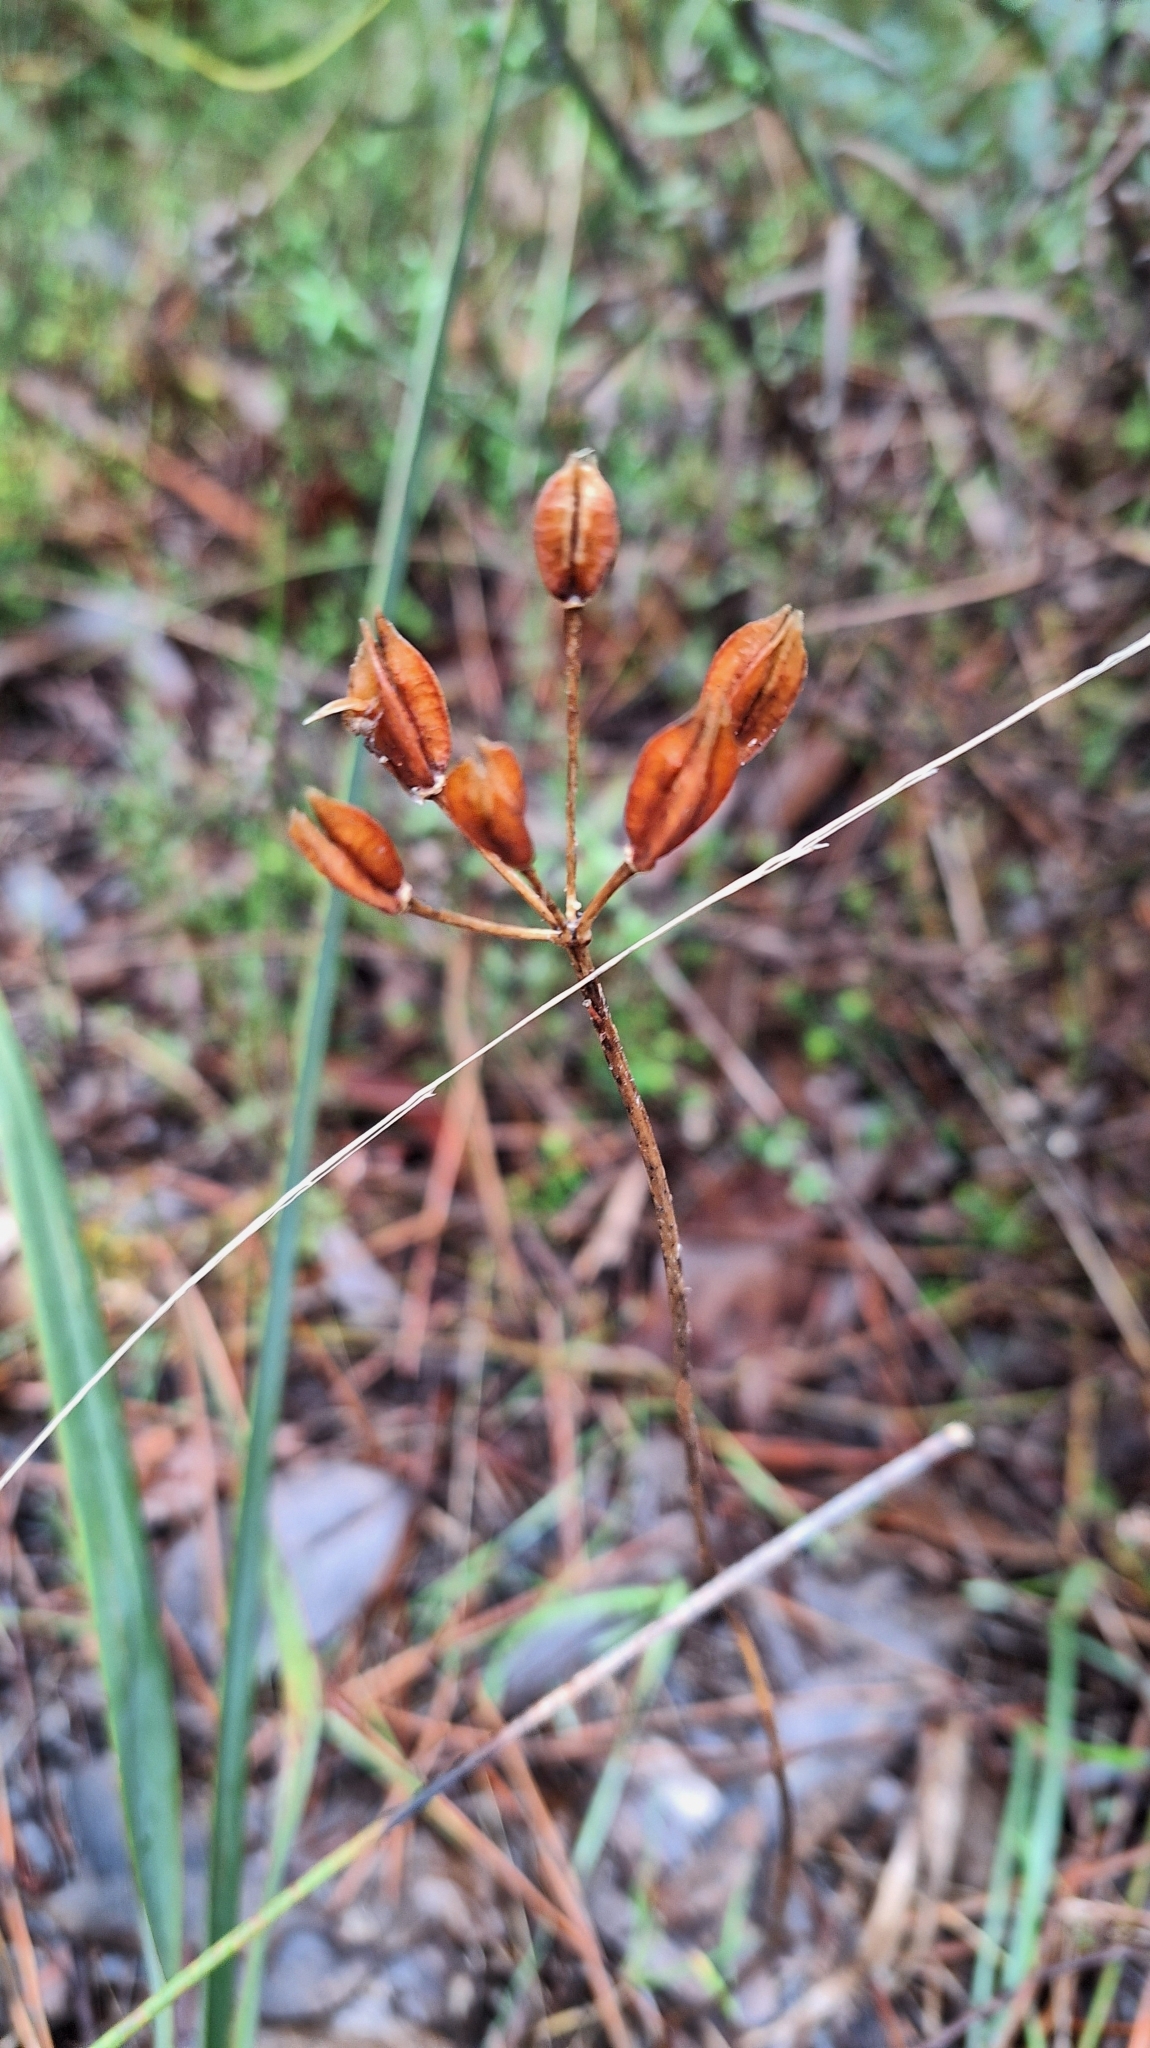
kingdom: Plantae
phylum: Tracheophyta
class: Liliopsida
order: Liliales
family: Colchicaceae
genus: Burchardia
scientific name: Burchardia umbellata
